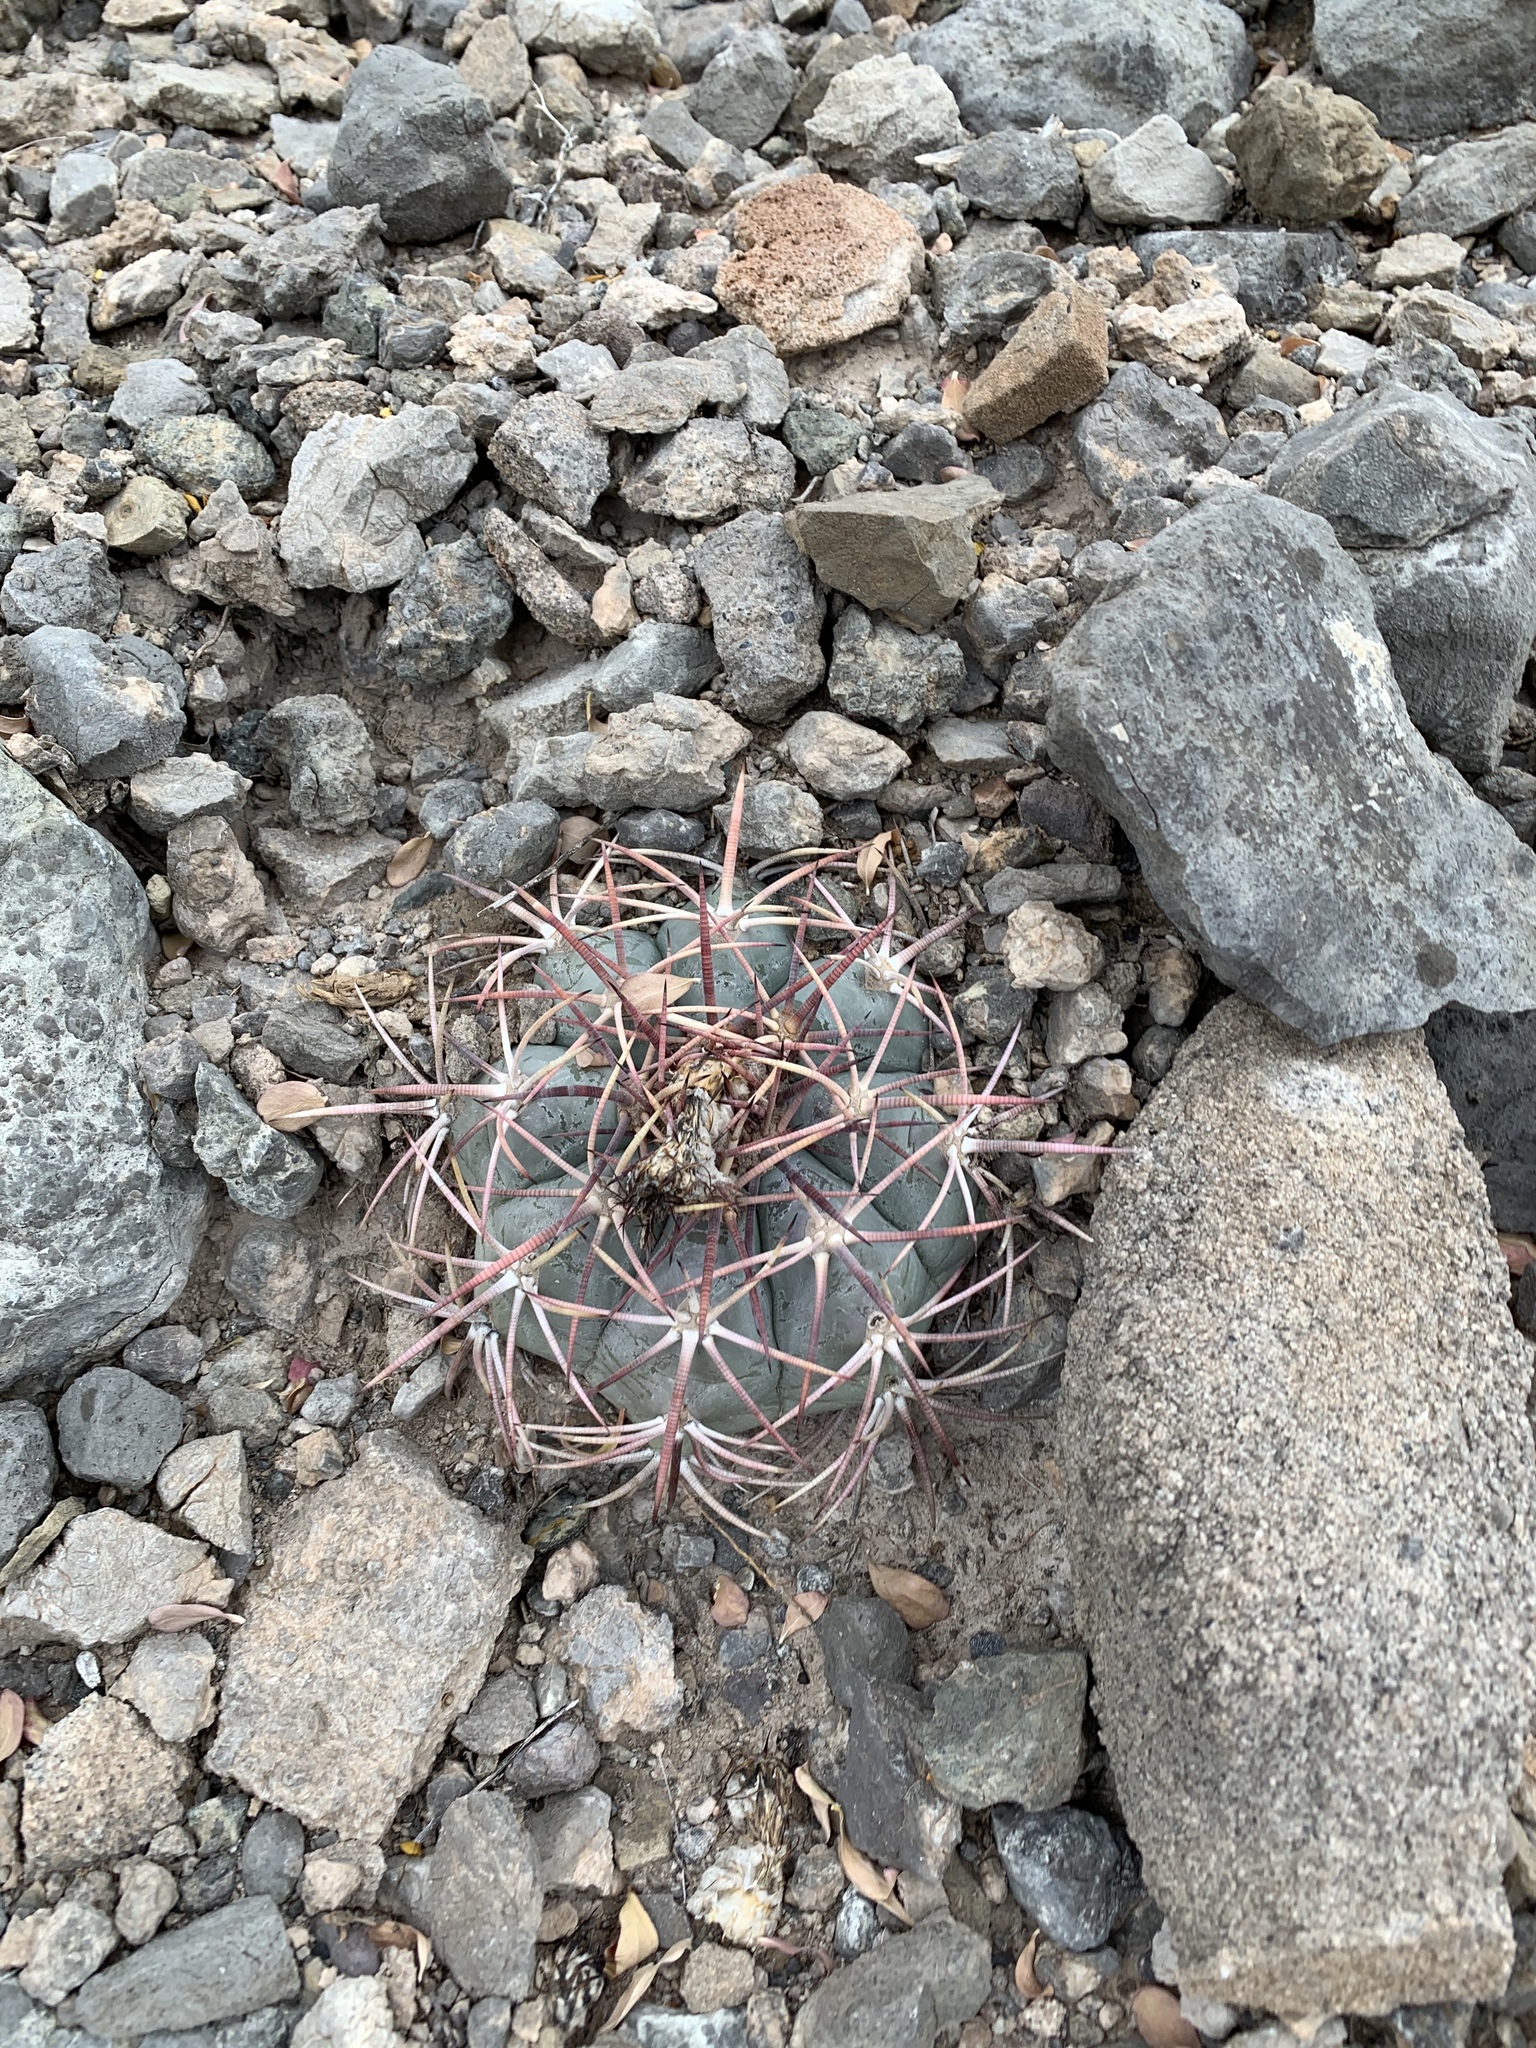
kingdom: Plantae
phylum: Tracheophyta
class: Magnoliopsida
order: Caryophyllales
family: Cactaceae
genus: Echinocactus
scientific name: Echinocactus horizonthalonius
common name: Devilshead
